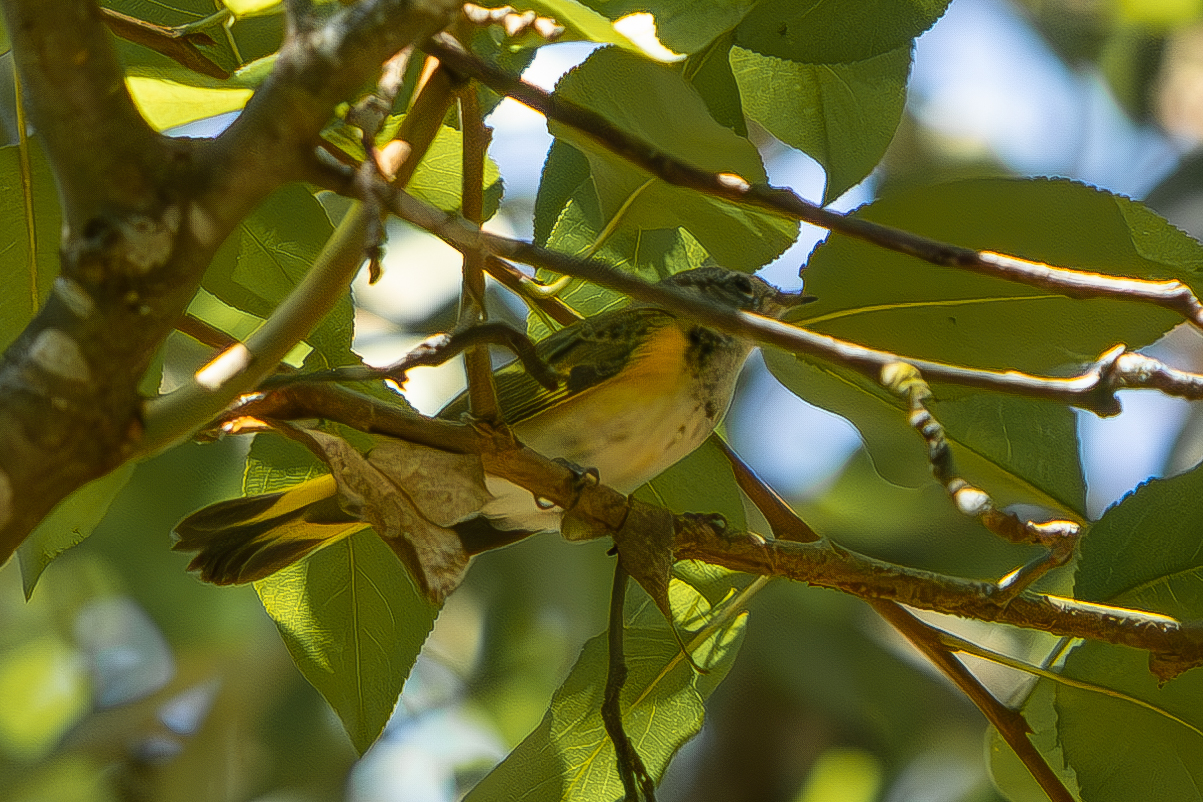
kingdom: Animalia
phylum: Chordata
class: Aves
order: Passeriformes
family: Parulidae
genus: Setophaga
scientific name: Setophaga ruticilla
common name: American redstart
